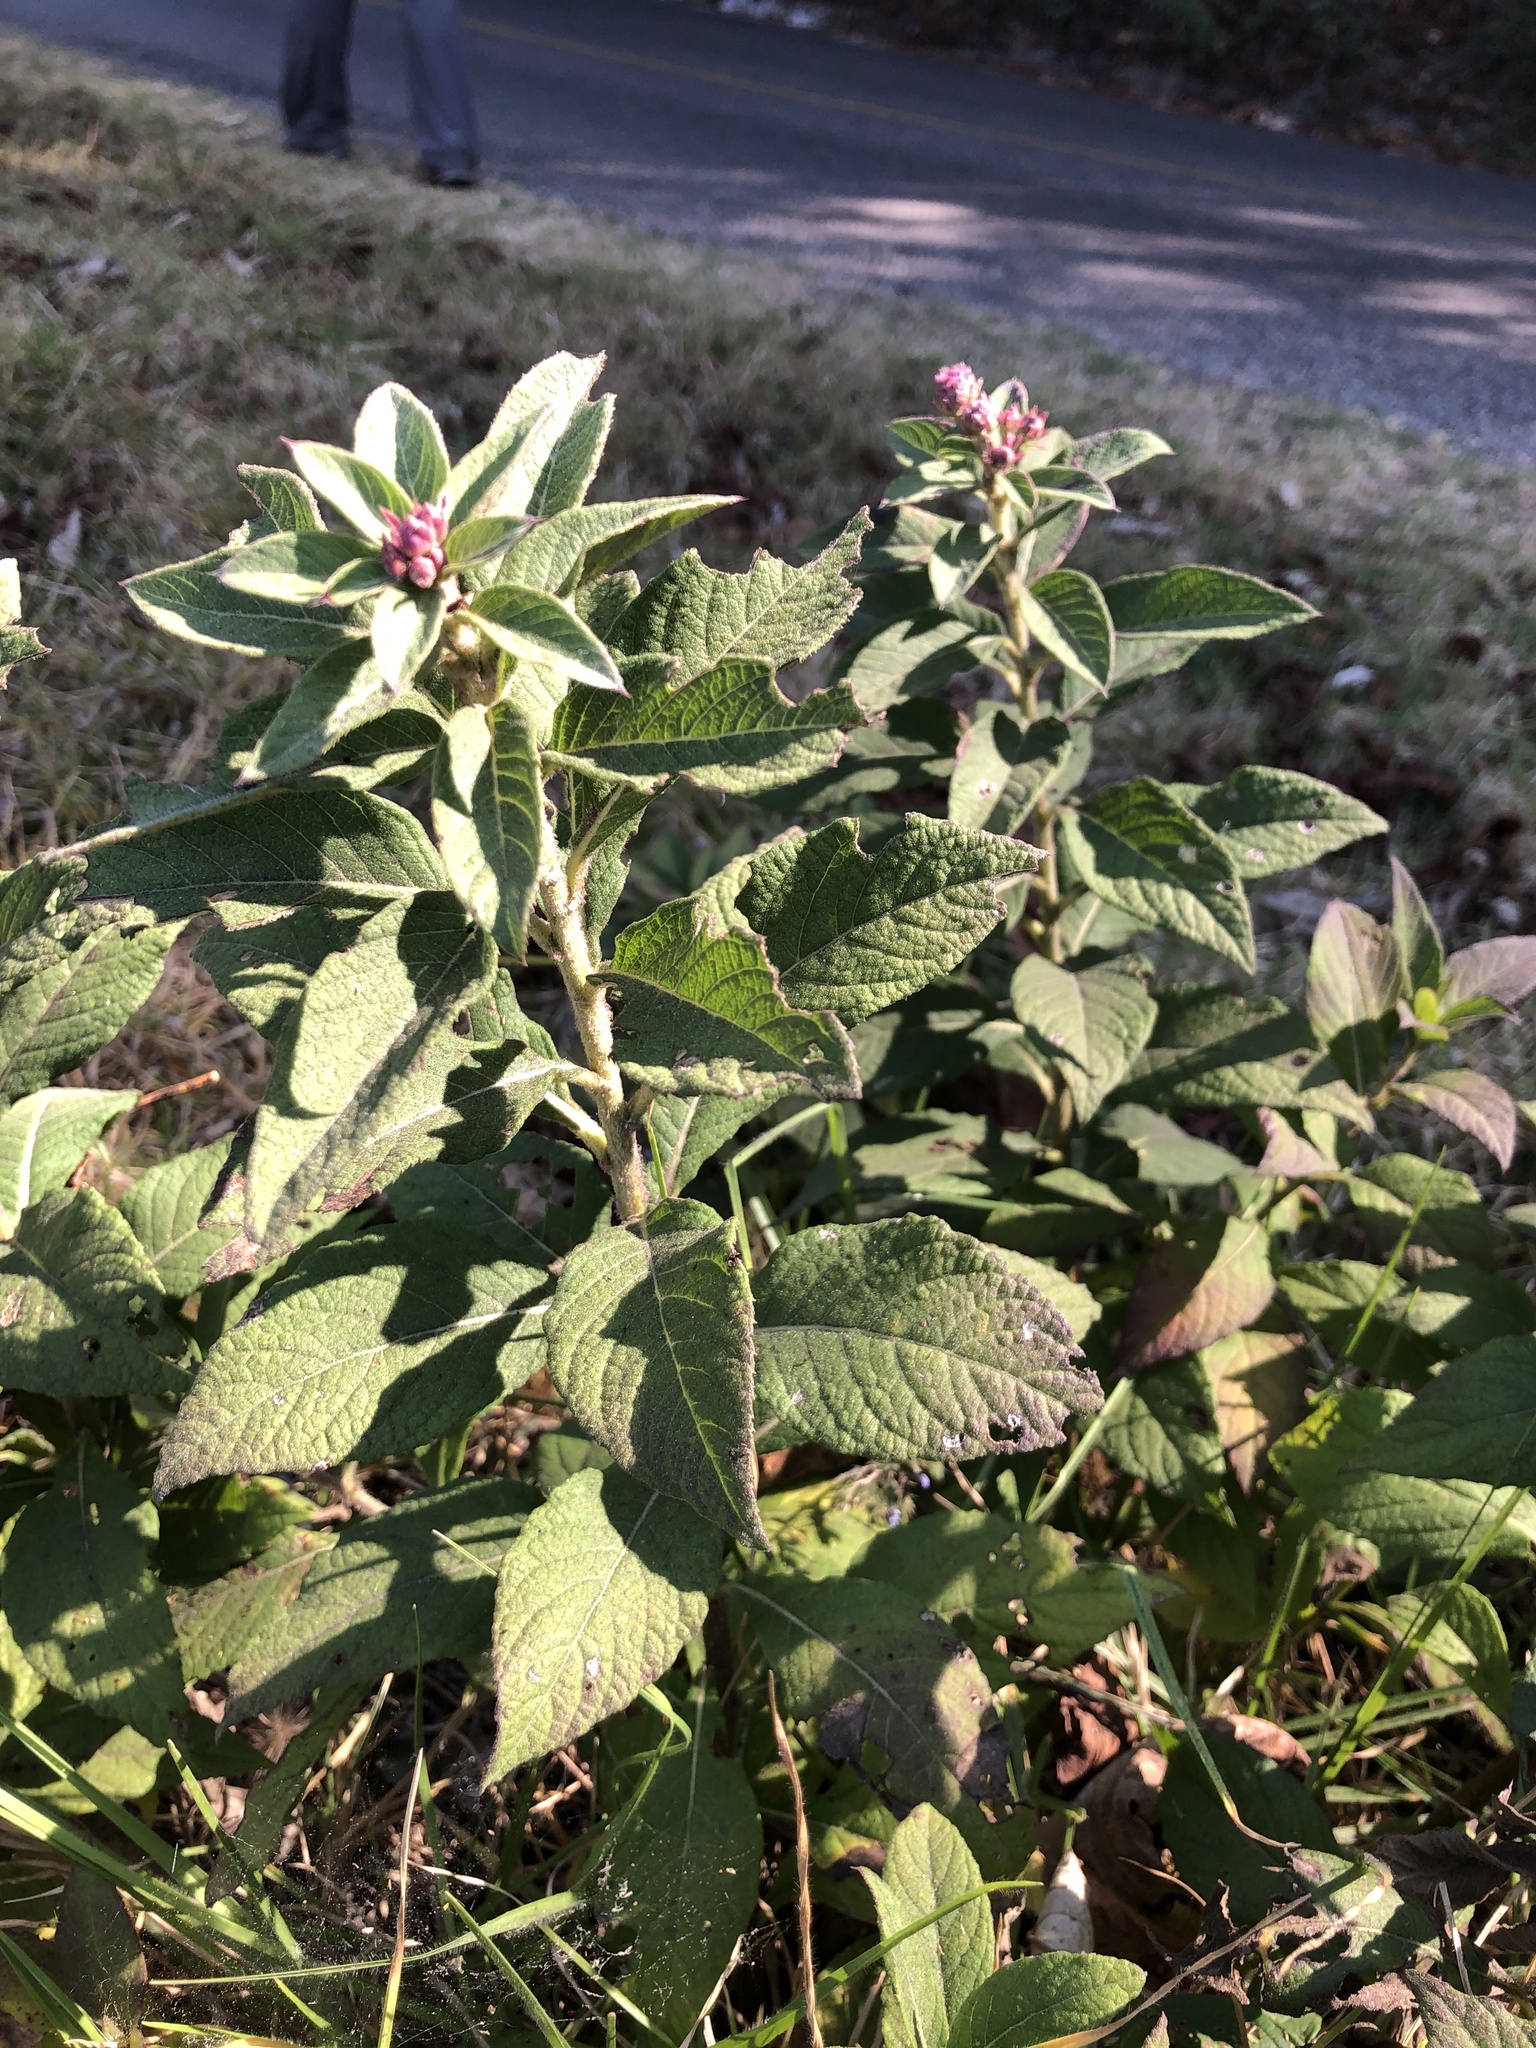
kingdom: Plantae
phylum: Tracheophyta
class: Magnoliopsida
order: Asterales
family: Asteraceae
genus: Vernonia
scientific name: Vernonia karvinskiana
